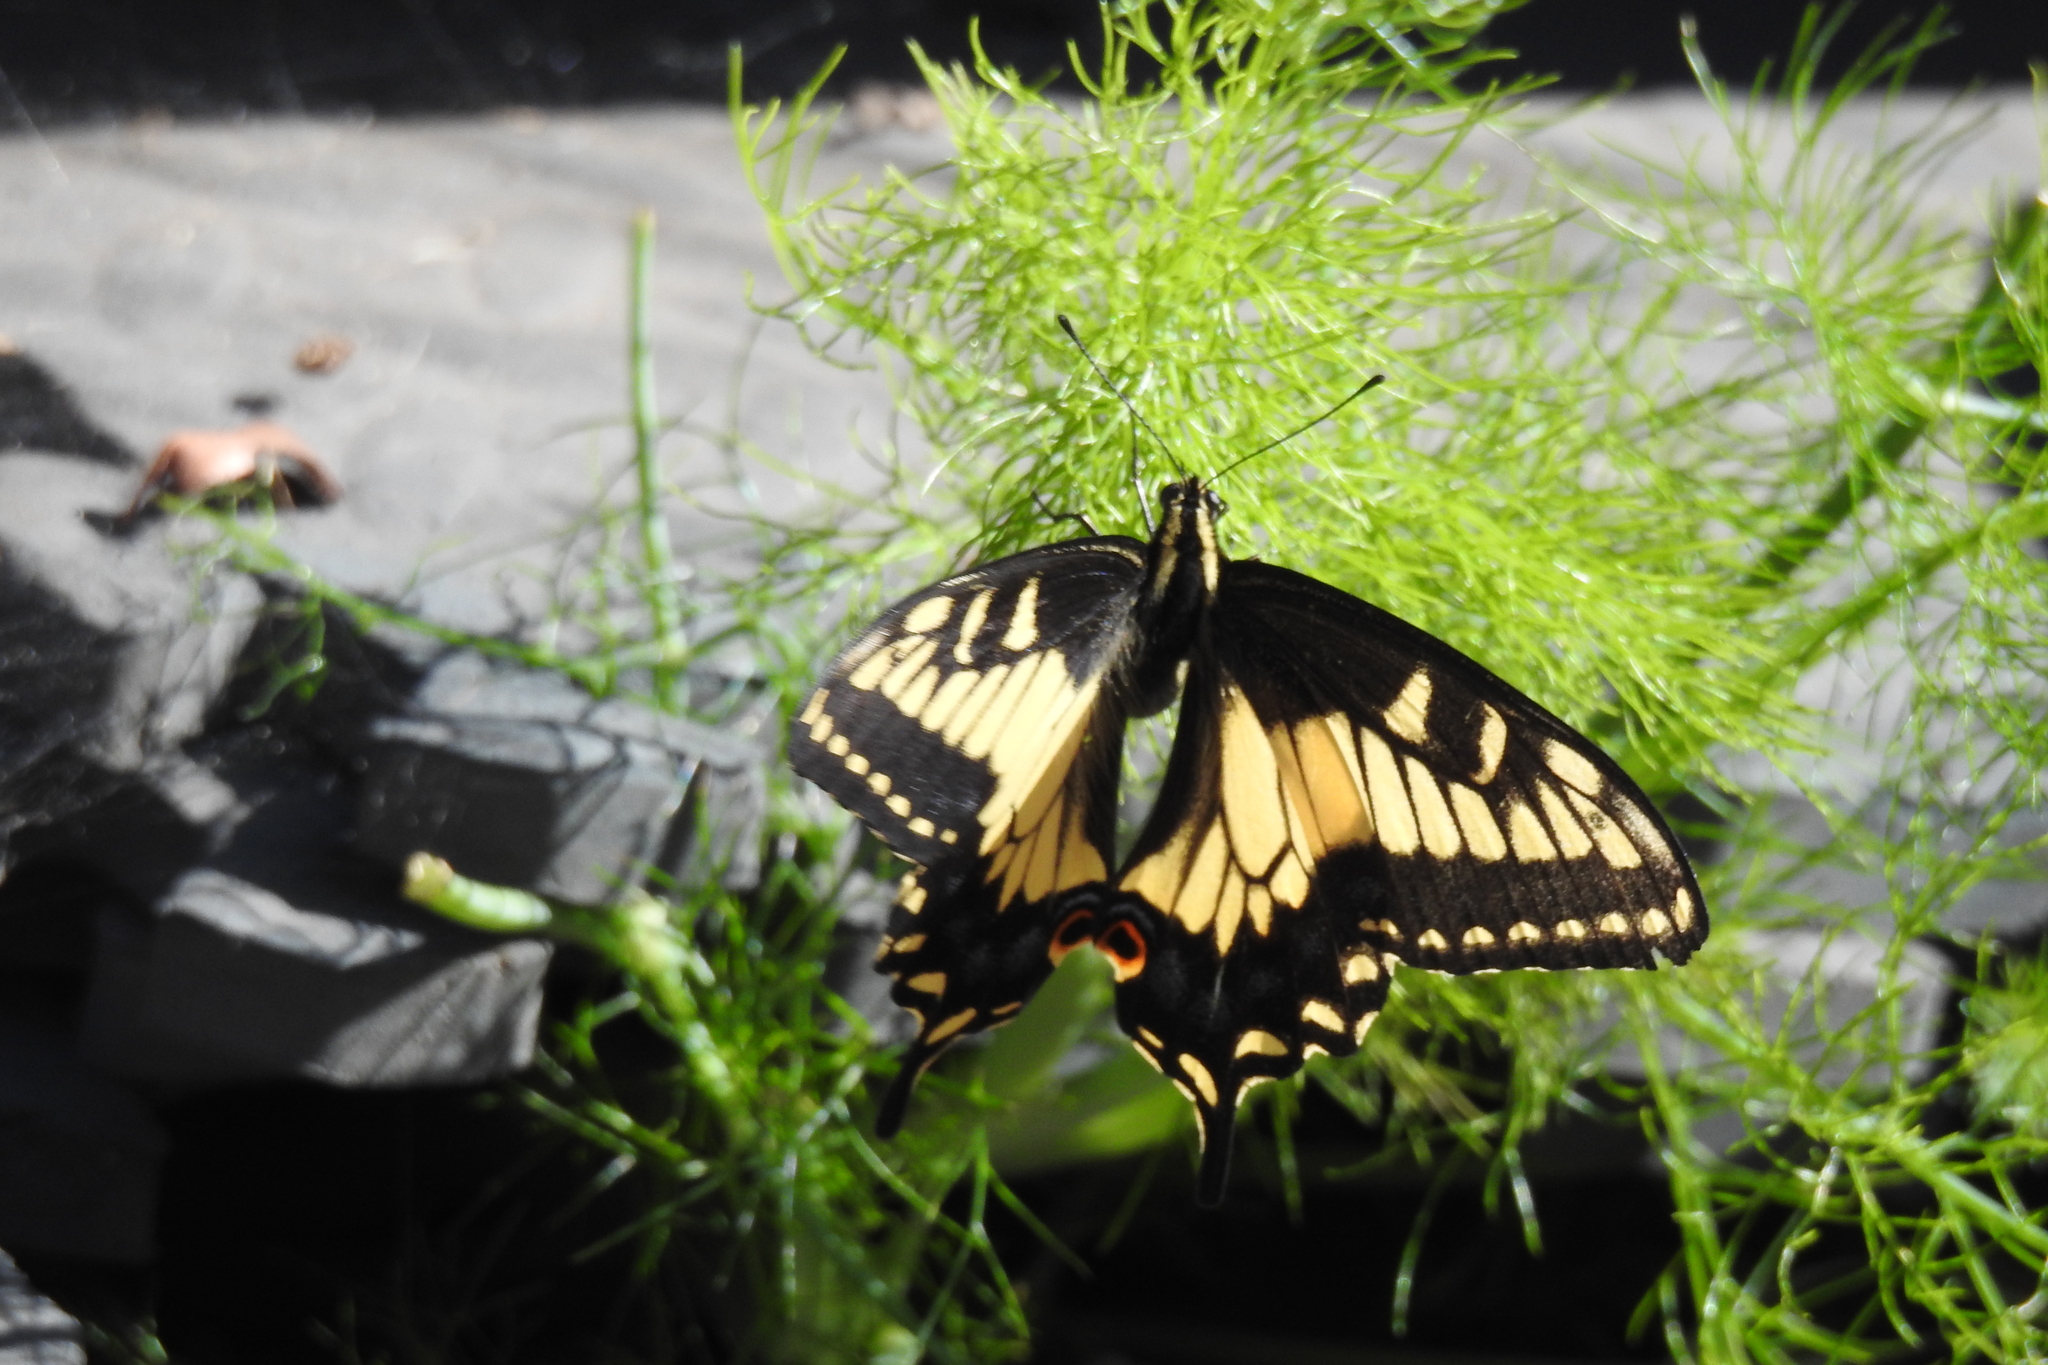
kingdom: Animalia
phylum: Arthropoda
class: Insecta
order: Lepidoptera
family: Papilionidae
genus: Papilio
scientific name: Papilio zelicaon
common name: Anise swallowtail
